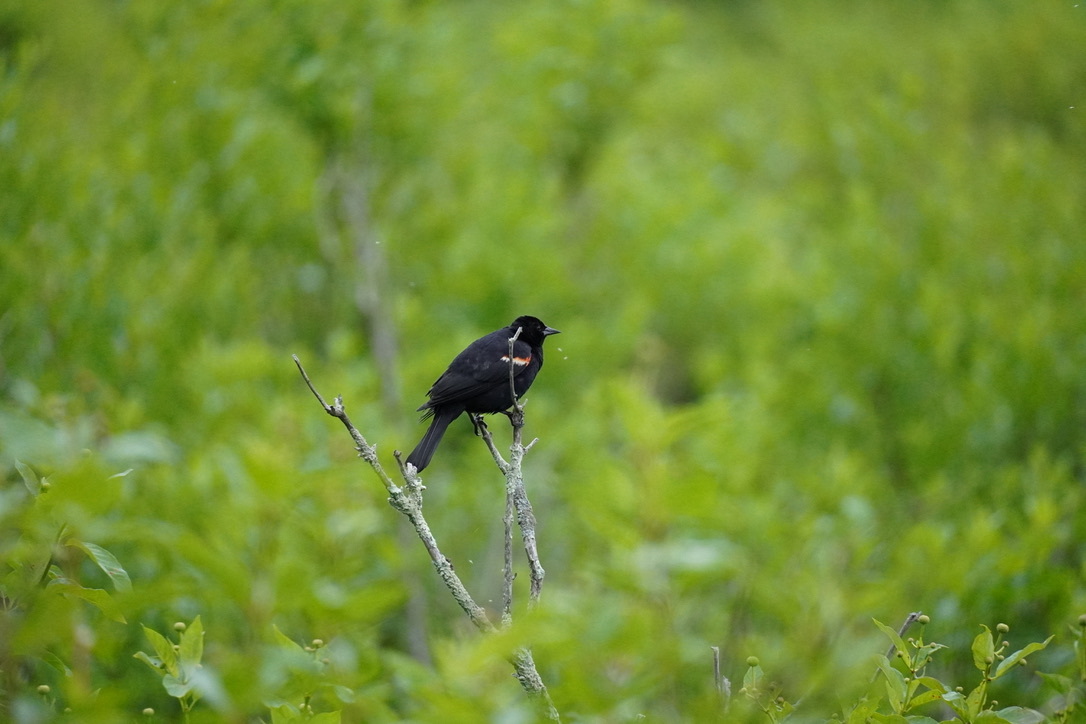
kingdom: Animalia
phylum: Chordata
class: Aves
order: Passeriformes
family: Icteridae
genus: Agelaius
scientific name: Agelaius phoeniceus
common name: Red-winged blackbird
